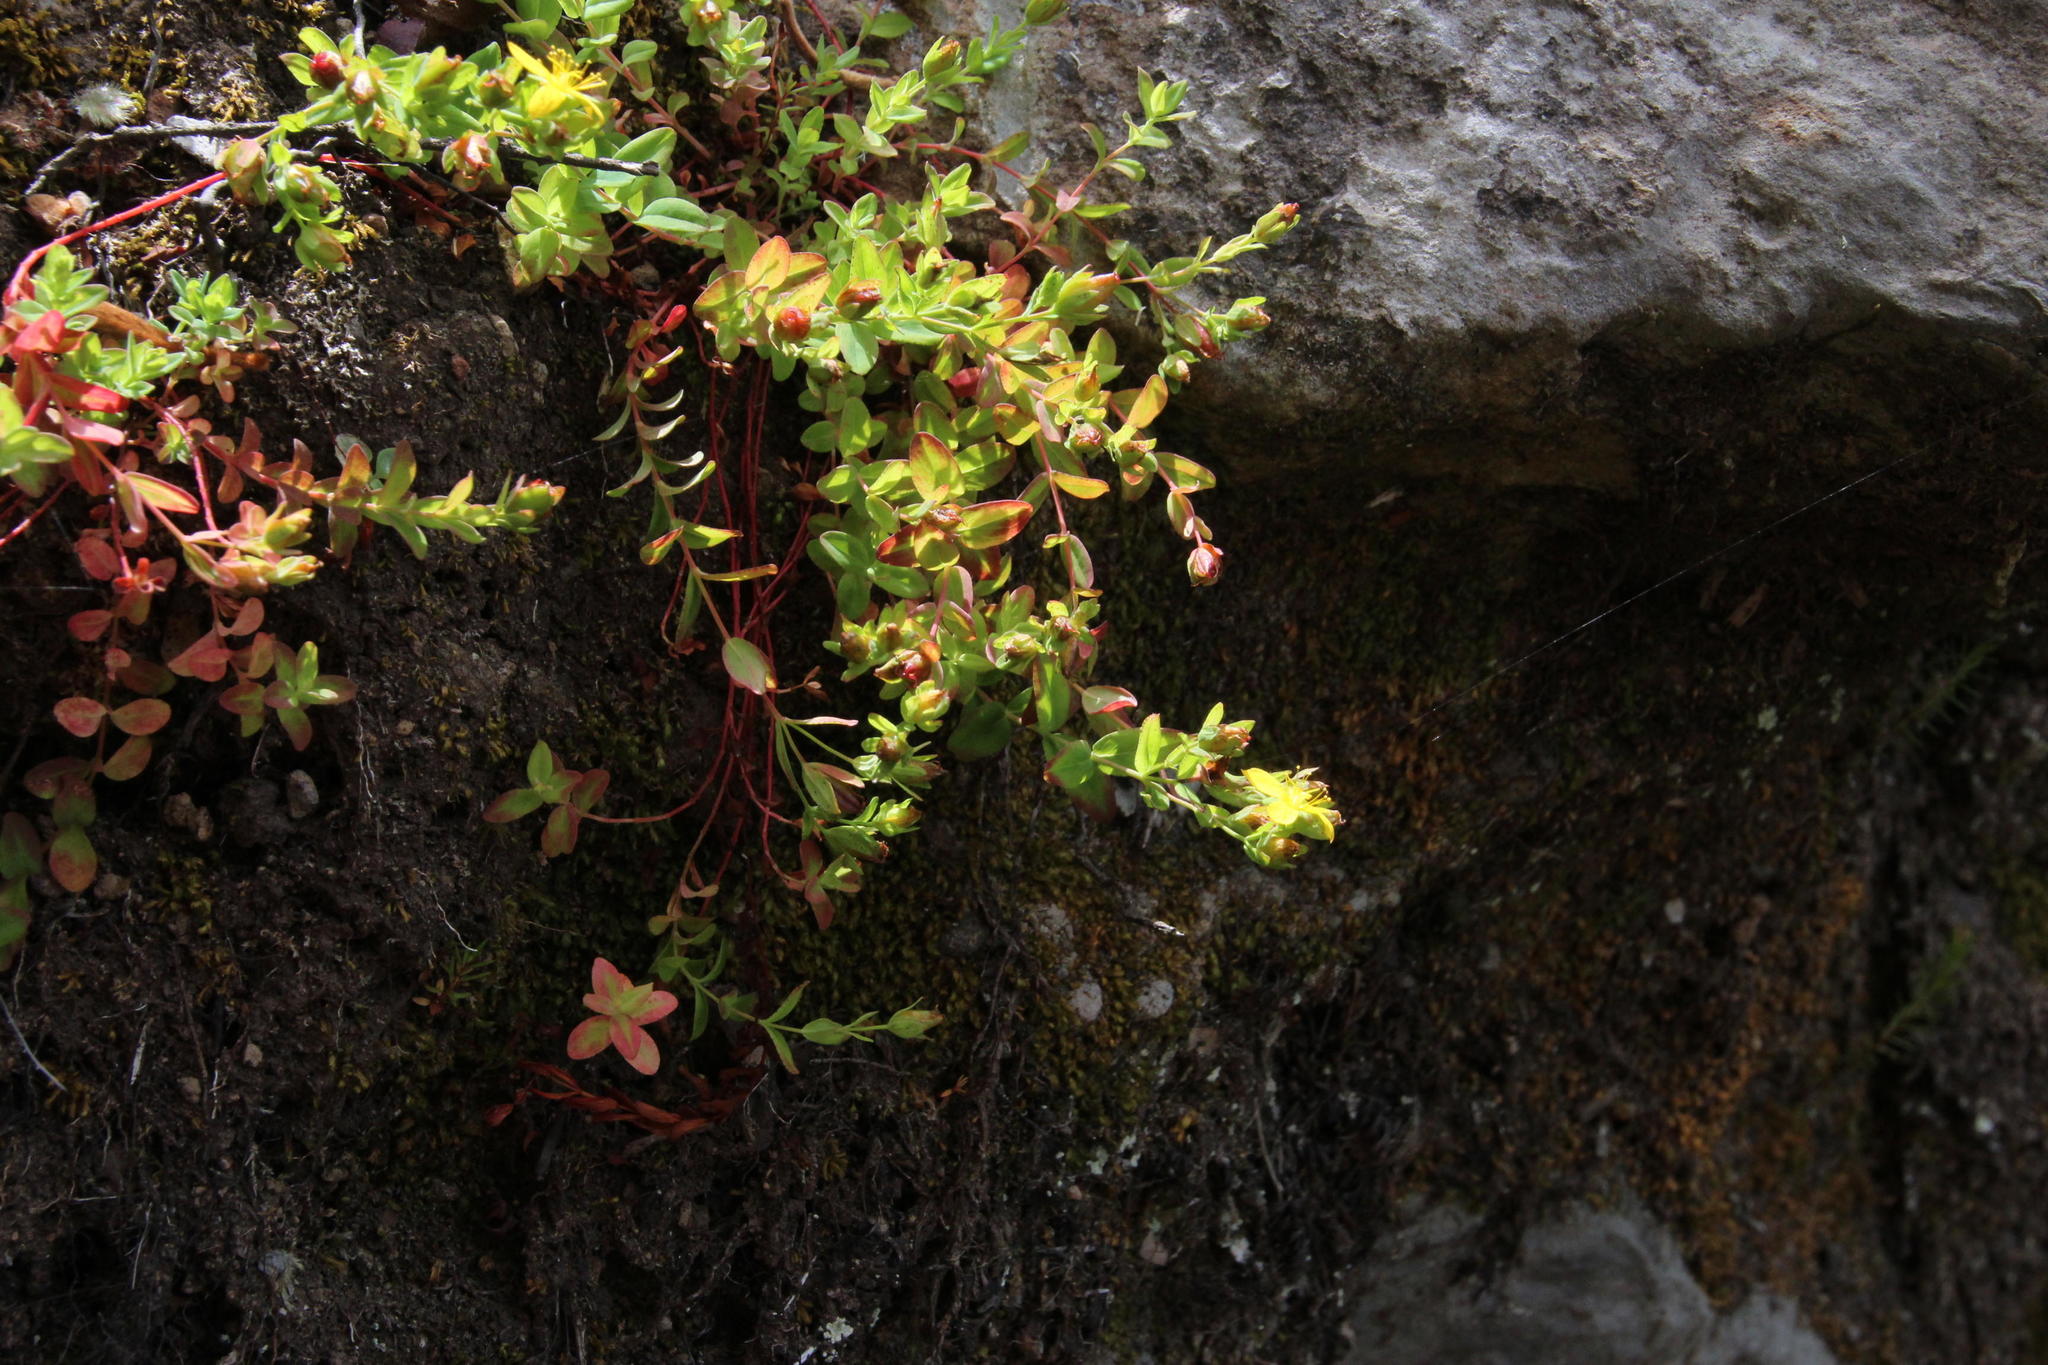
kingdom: Plantae
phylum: Tracheophyta
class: Magnoliopsida
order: Malpighiales
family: Hypericaceae
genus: Hypericum
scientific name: Hypericum humifusum
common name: Trailing st. john's-wort
